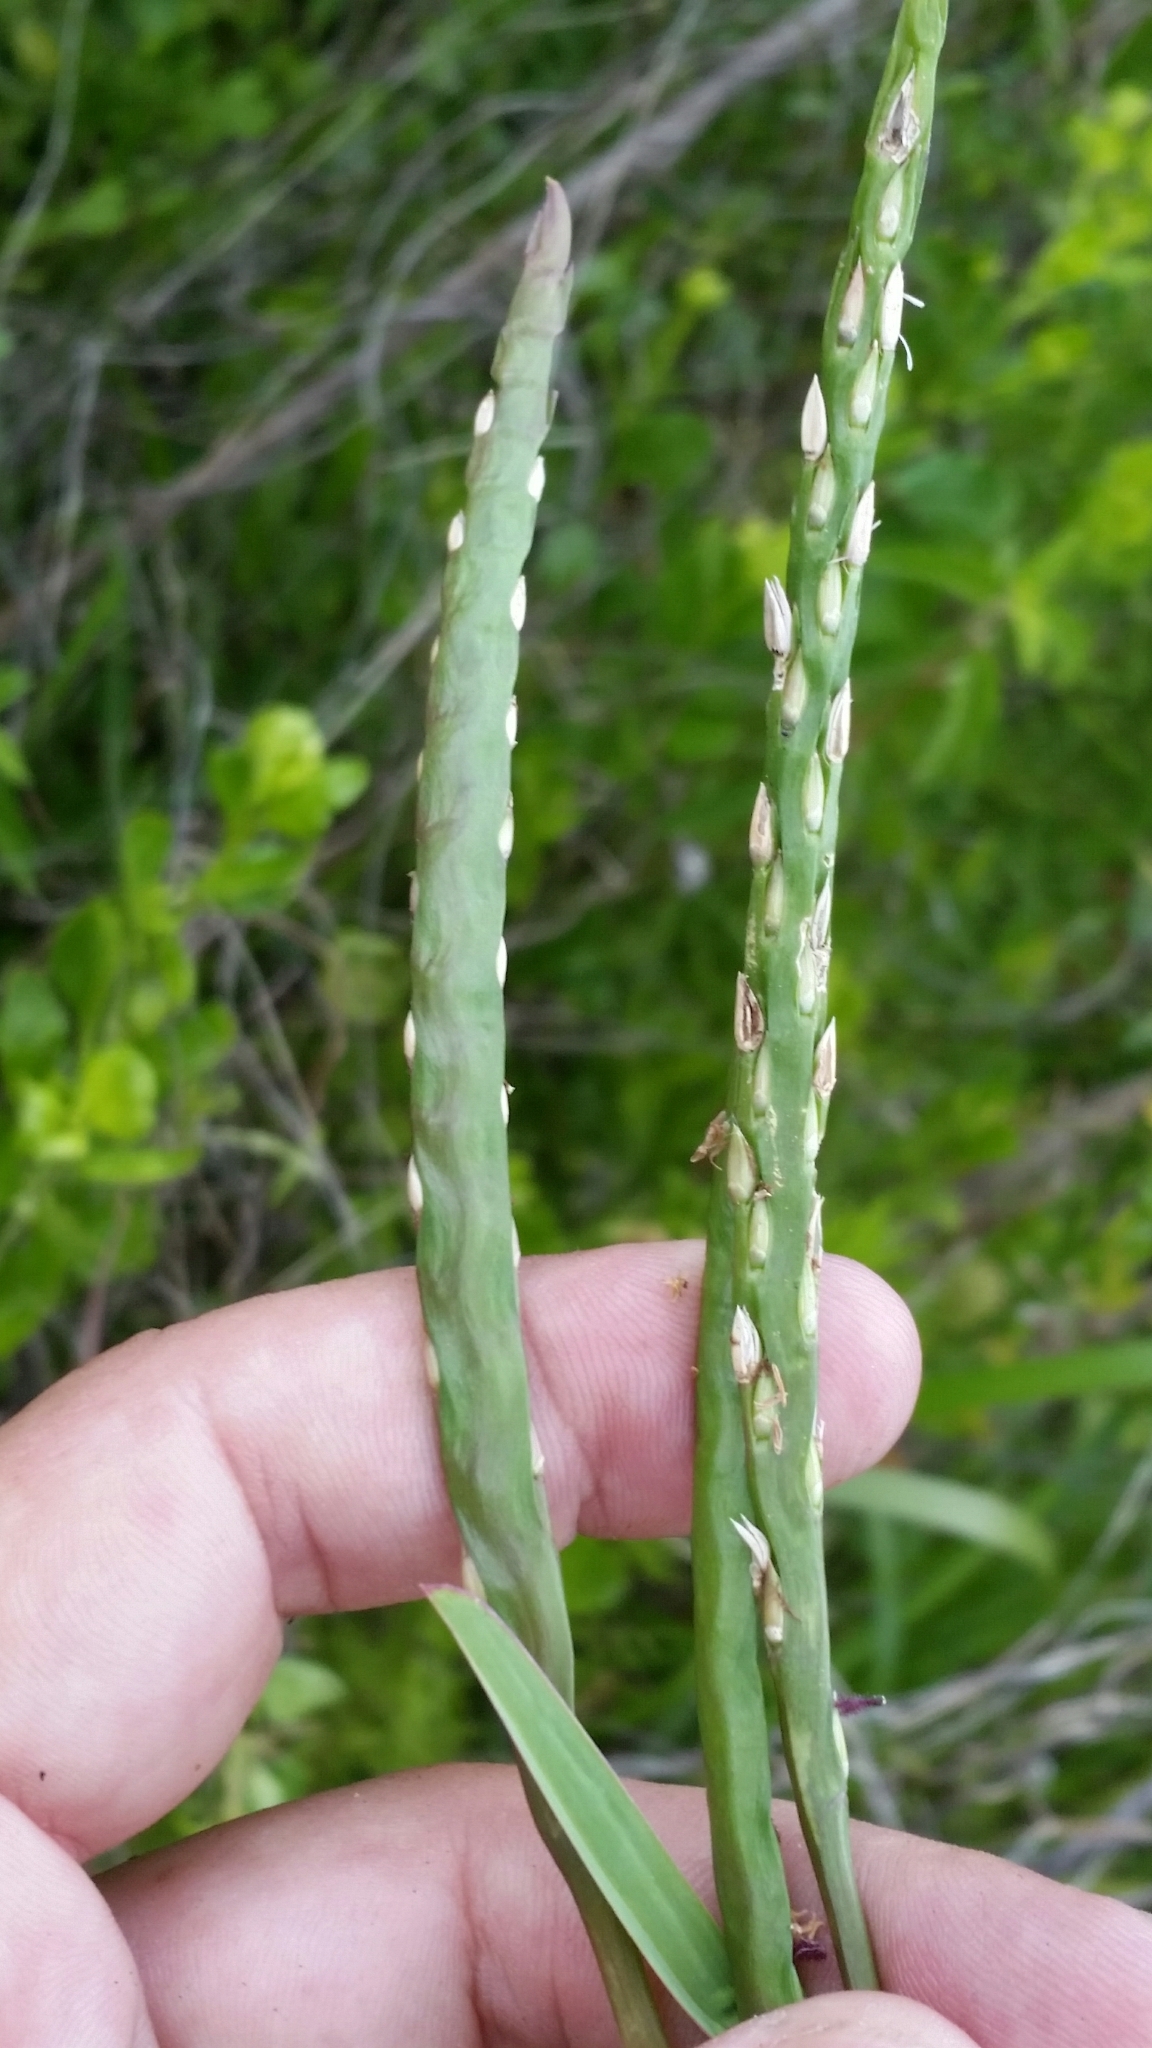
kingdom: Plantae
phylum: Tracheophyta
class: Liliopsida
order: Poales
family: Poaceae
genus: Stenotaphrum
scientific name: Stenotaphrum secundatum
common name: St. augustine grass
